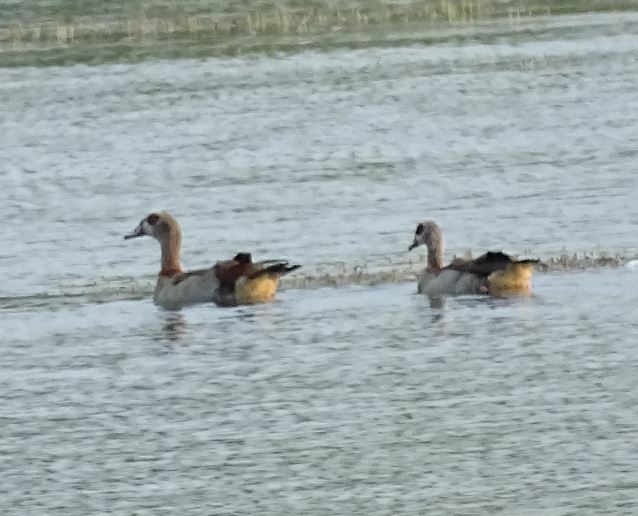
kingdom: Animalia
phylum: Chordata
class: Aves
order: Anseriformes
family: Anatidae
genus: Alopochen
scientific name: Alopochen aegyptiaca
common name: Egyptian goose
